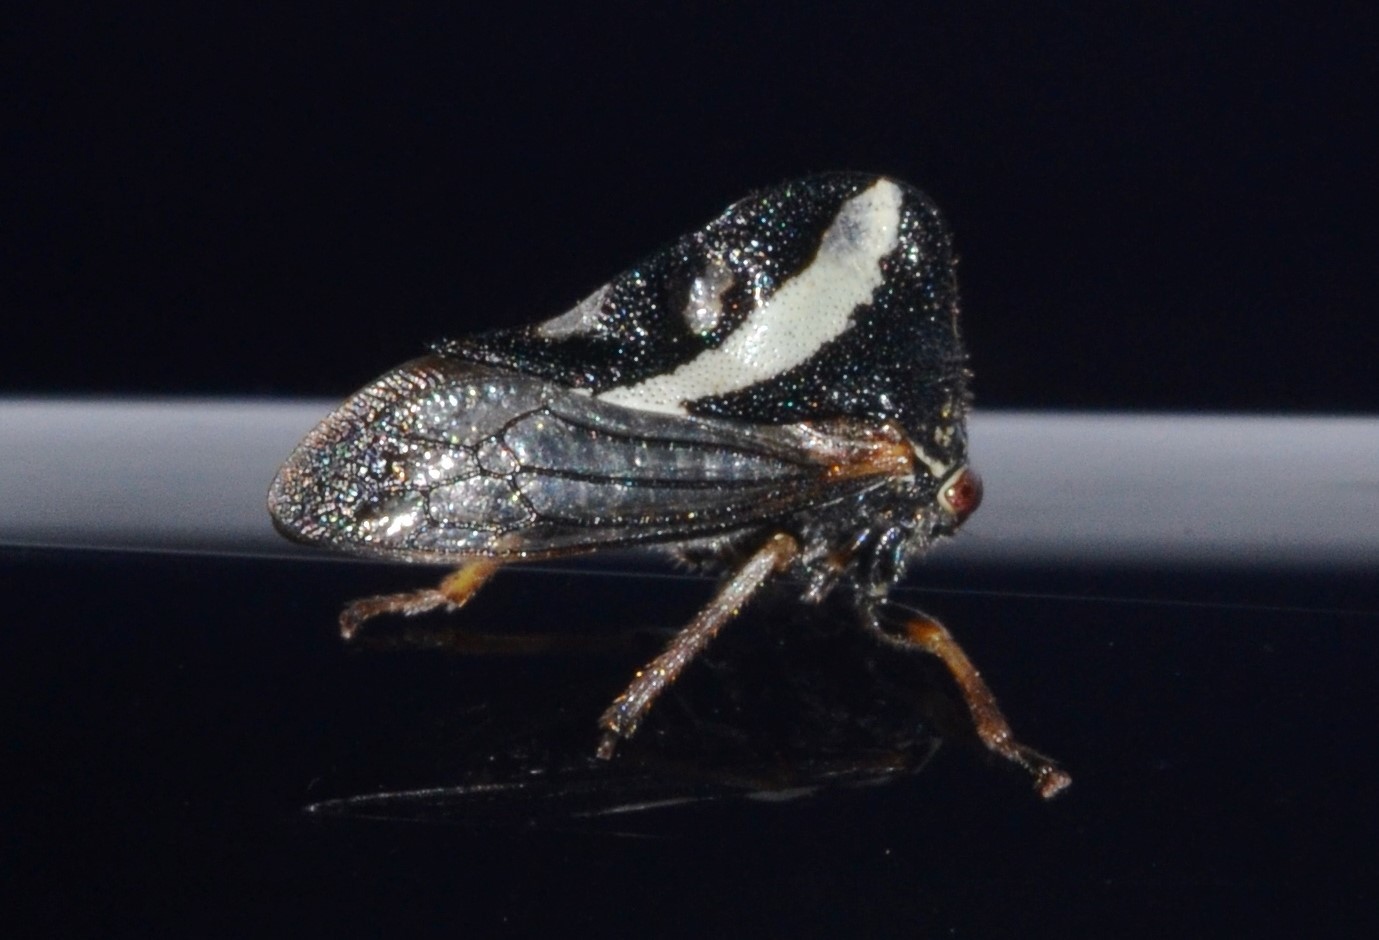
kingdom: Animalia
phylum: Arthropoda
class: Insecta
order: Hemiptera
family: Membracidae
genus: Smilia
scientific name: Smilia camelus
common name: Camel treehopper
